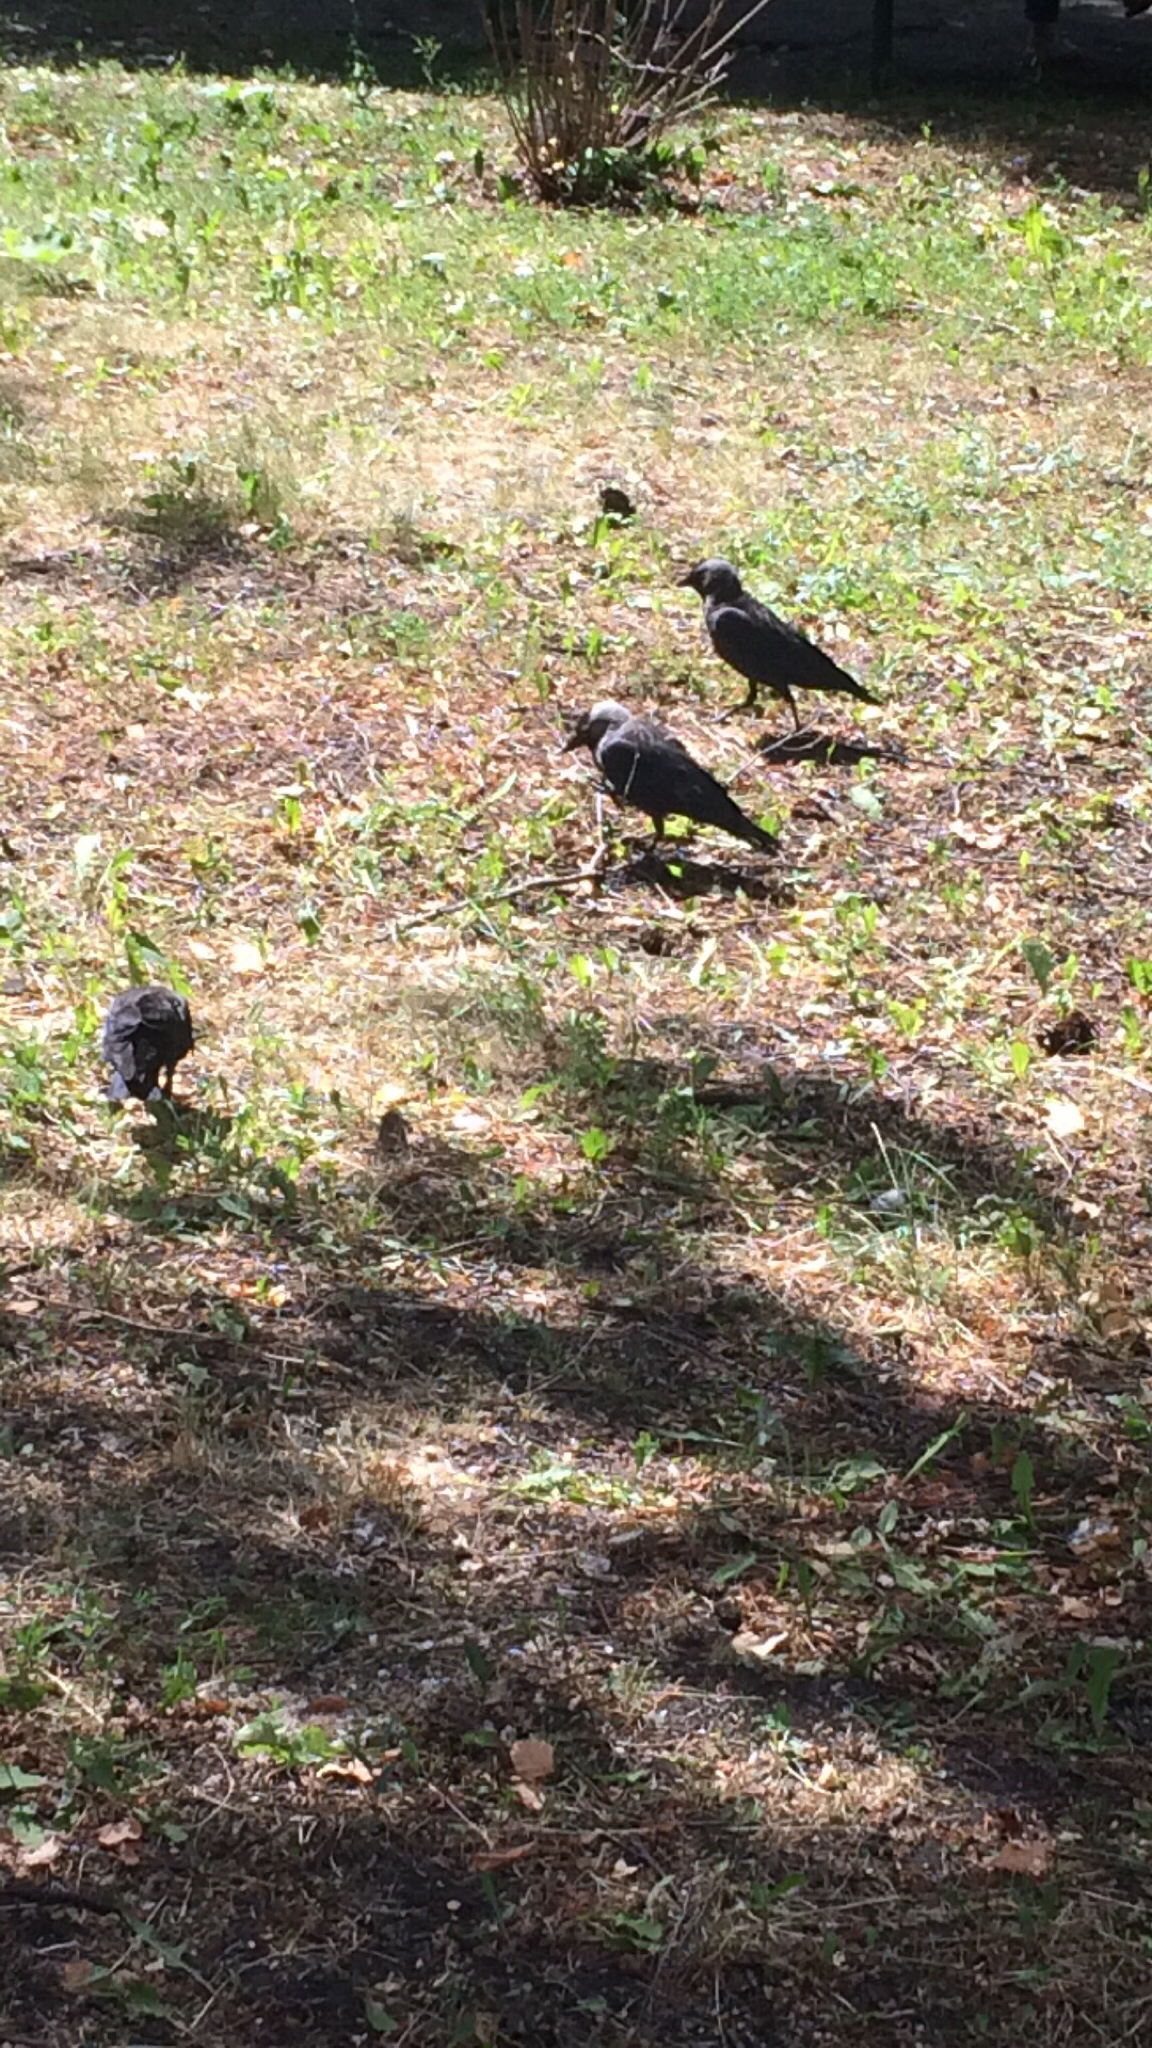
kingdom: Animalia
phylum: Chordata
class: Aves
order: Passeriformes
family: Corvidae
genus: Coloeus
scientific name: Coloeus monedula
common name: Western jackdaw
